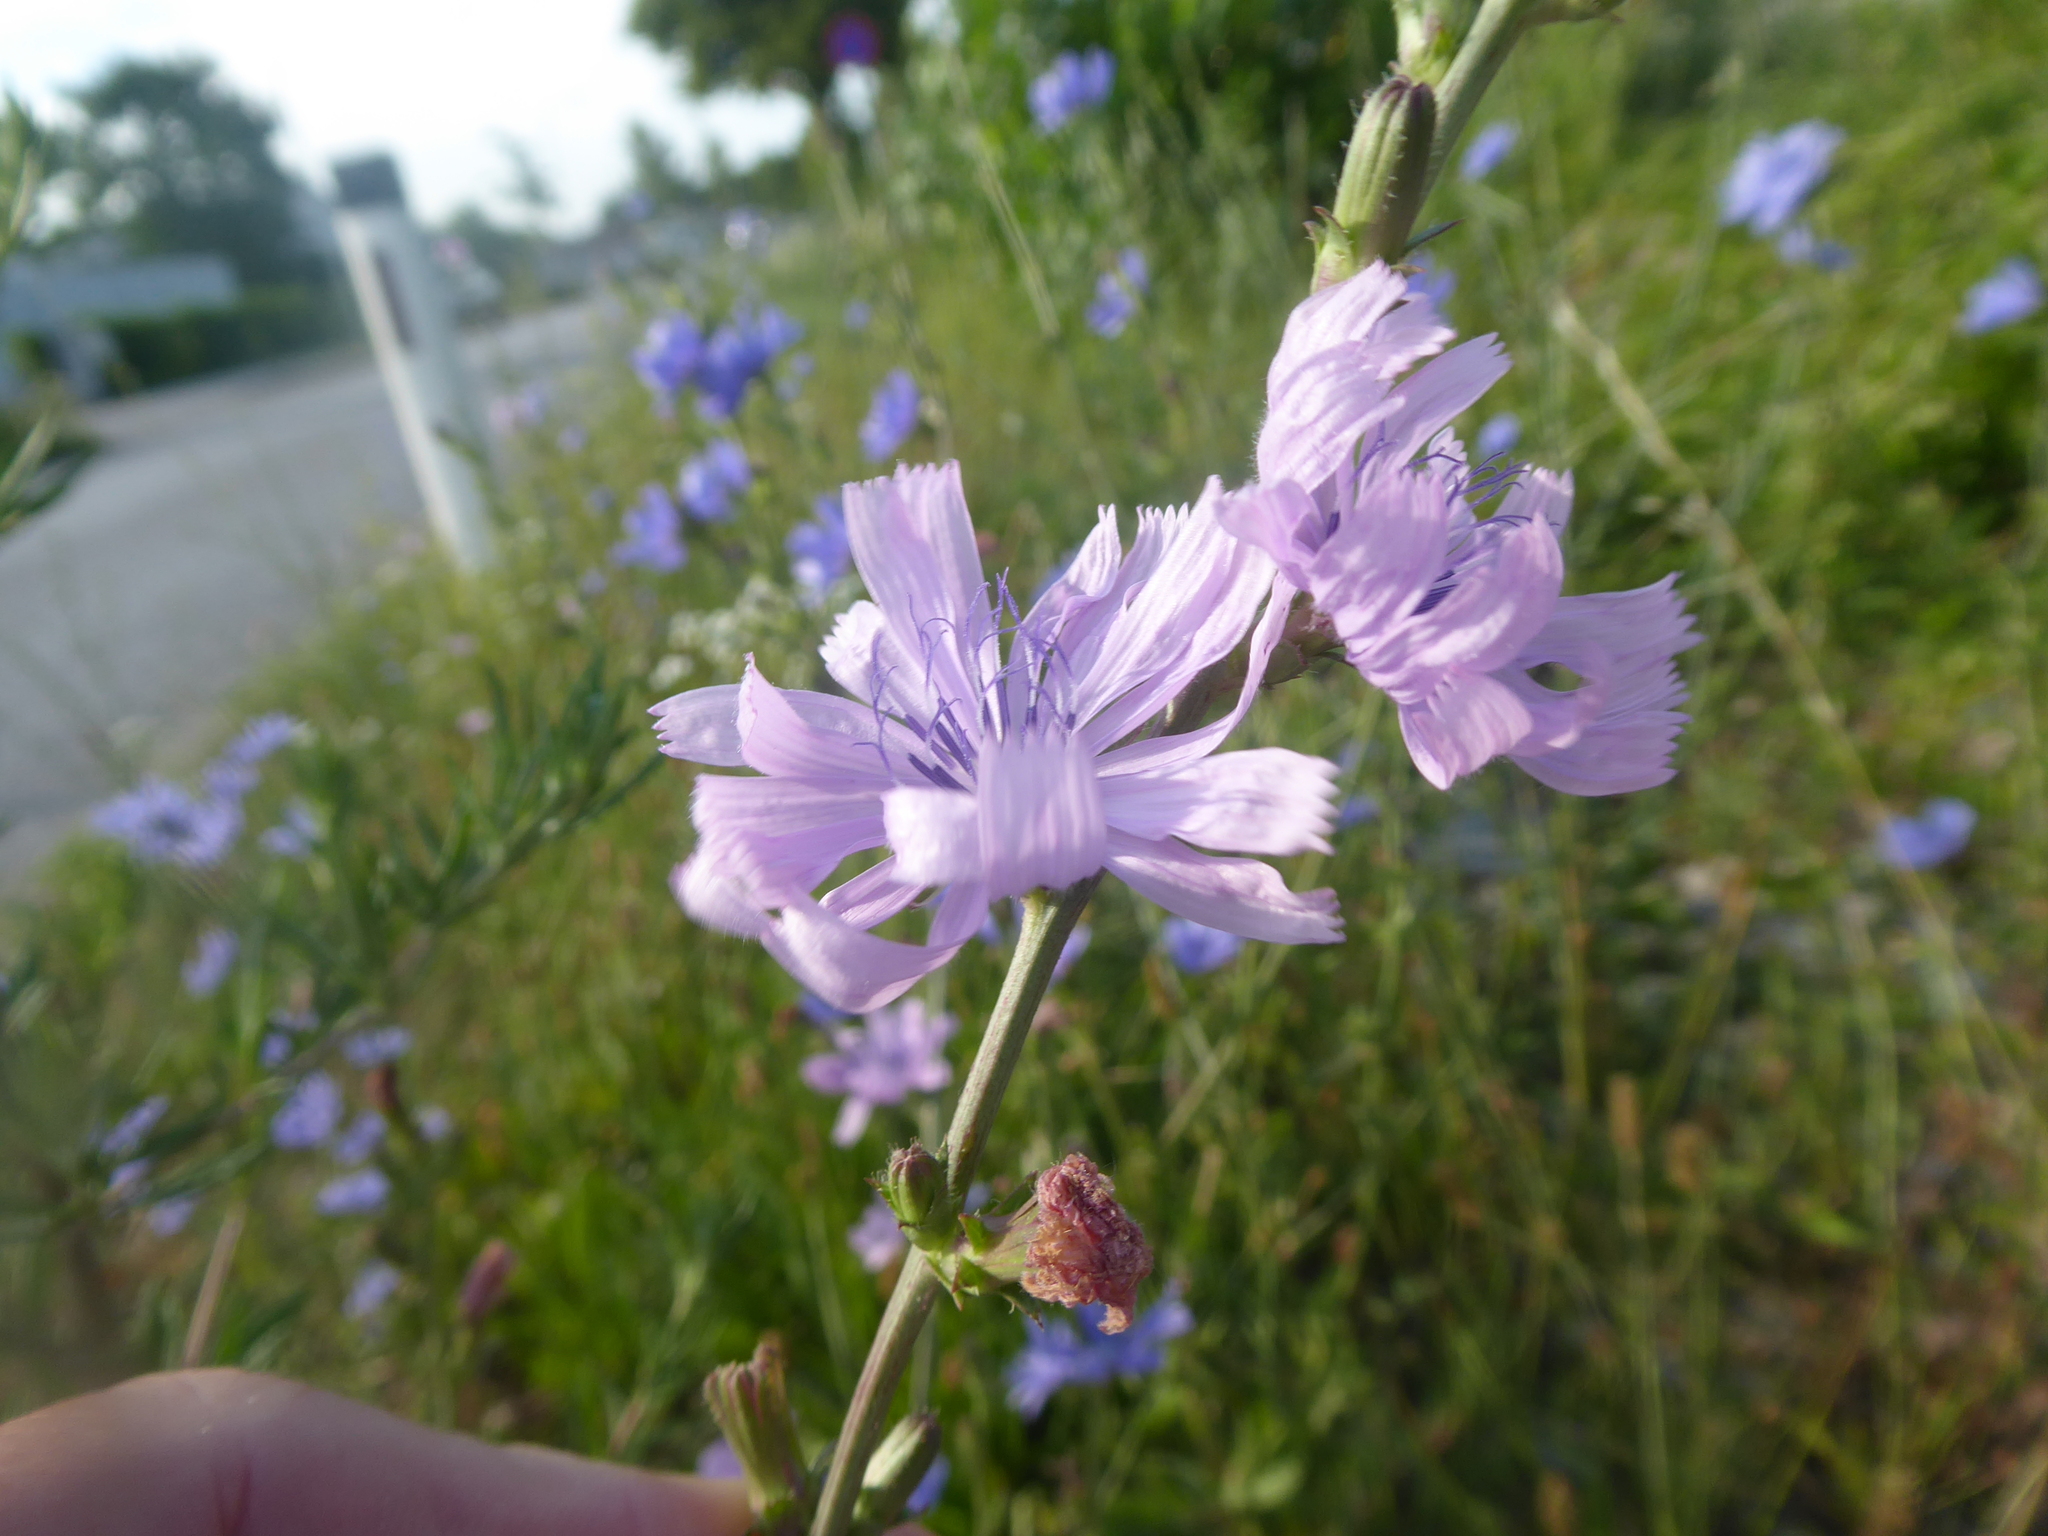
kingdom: Plantae
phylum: Tracheophyta
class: Magnoliopsida
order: Asterales
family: Asteraceae
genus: Cichorium
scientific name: Cichorium intybus
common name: Chicory
